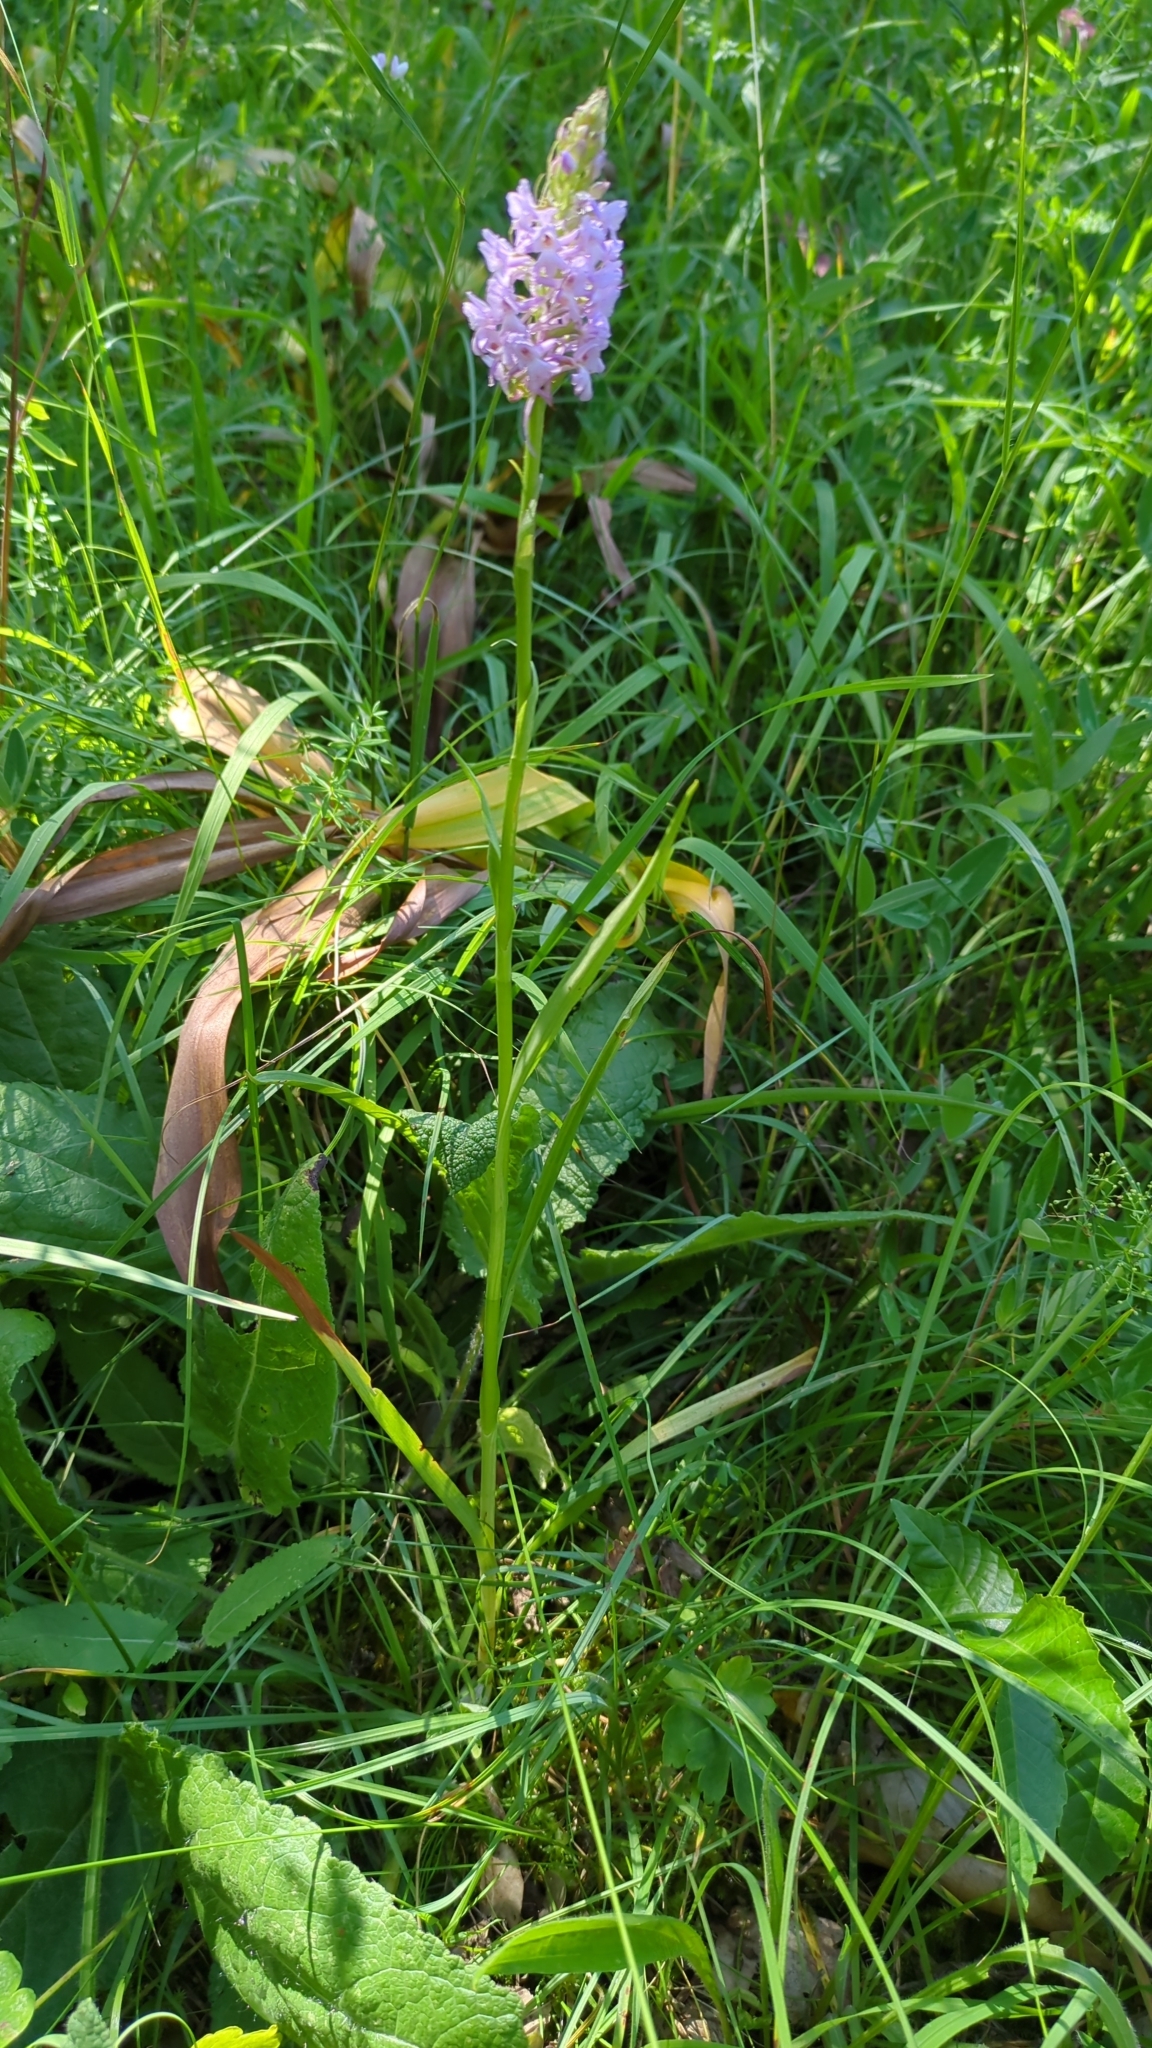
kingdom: Plantae
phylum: Tracheophyta
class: Liliopsida
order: Asparagales
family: Orchidaceae
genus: Gymnadenia
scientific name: Gymnadenia conopsea
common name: Fragrant orchid
